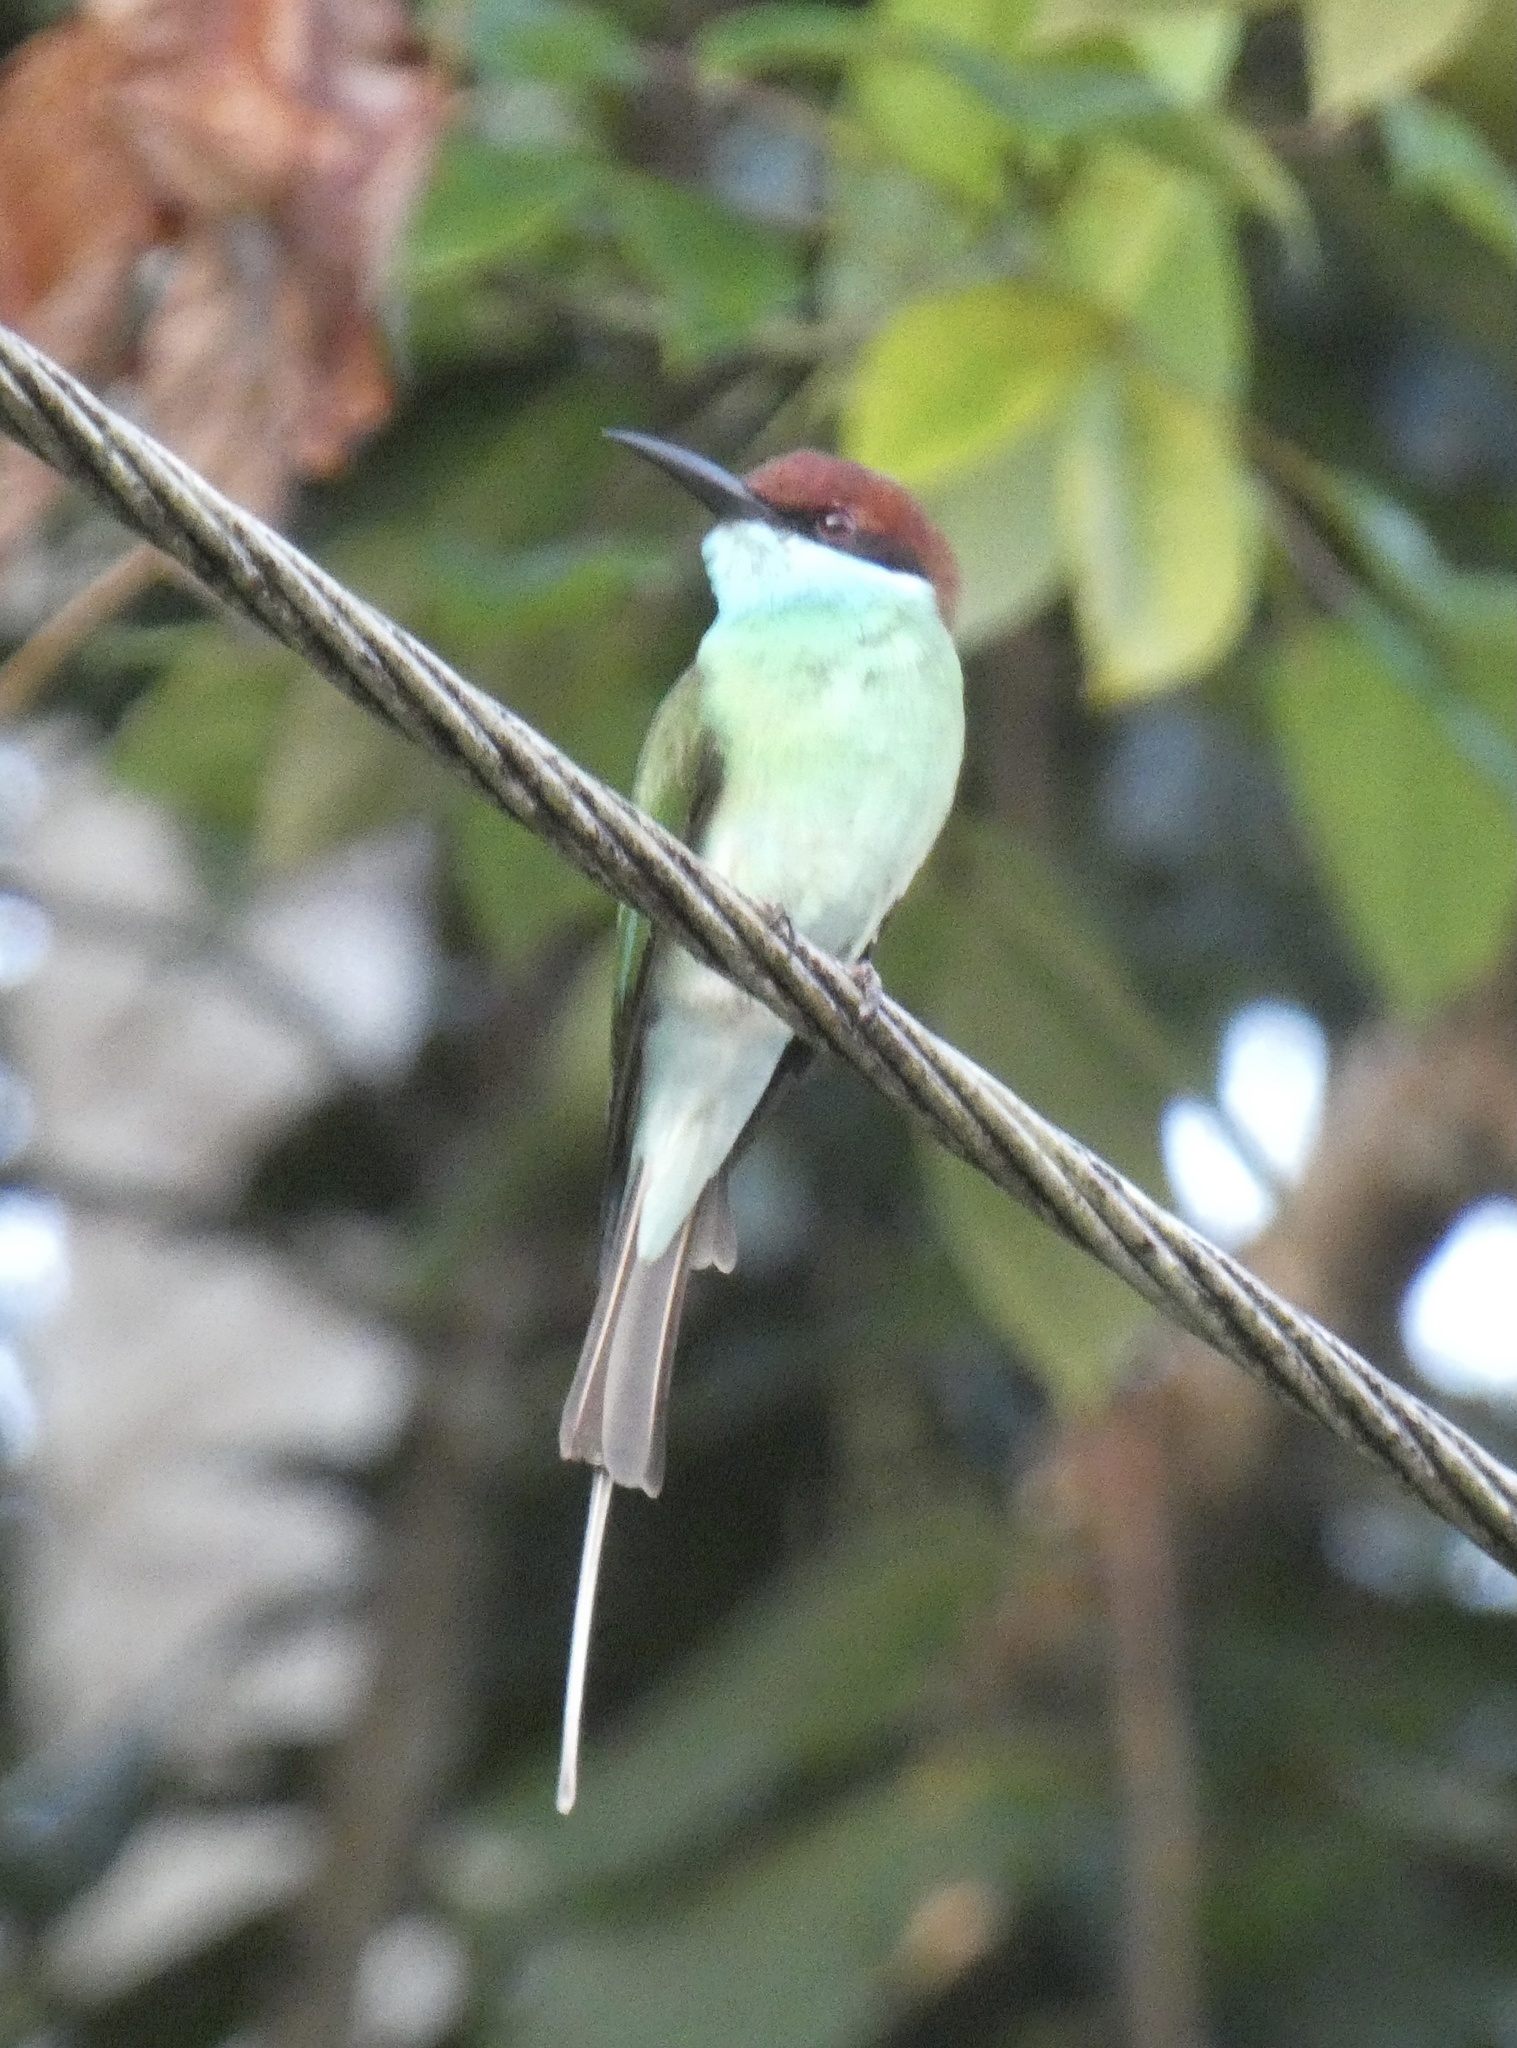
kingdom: Animalia
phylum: Chordata
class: Aves
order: Coraciiformes
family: Meropidae
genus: Merops
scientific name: Merops viridis
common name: Blue-throated bee-eater
